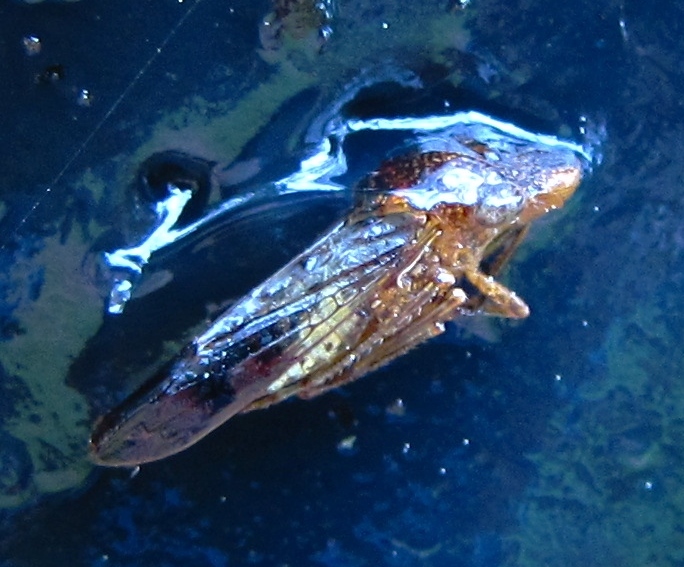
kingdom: Animalia
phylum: Arthropoda
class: Insecta
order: Hemiptera
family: Cicadellidae
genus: Homalodisca
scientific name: Homalodisca vitripennis
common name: Glassy-winged sharpshooter
